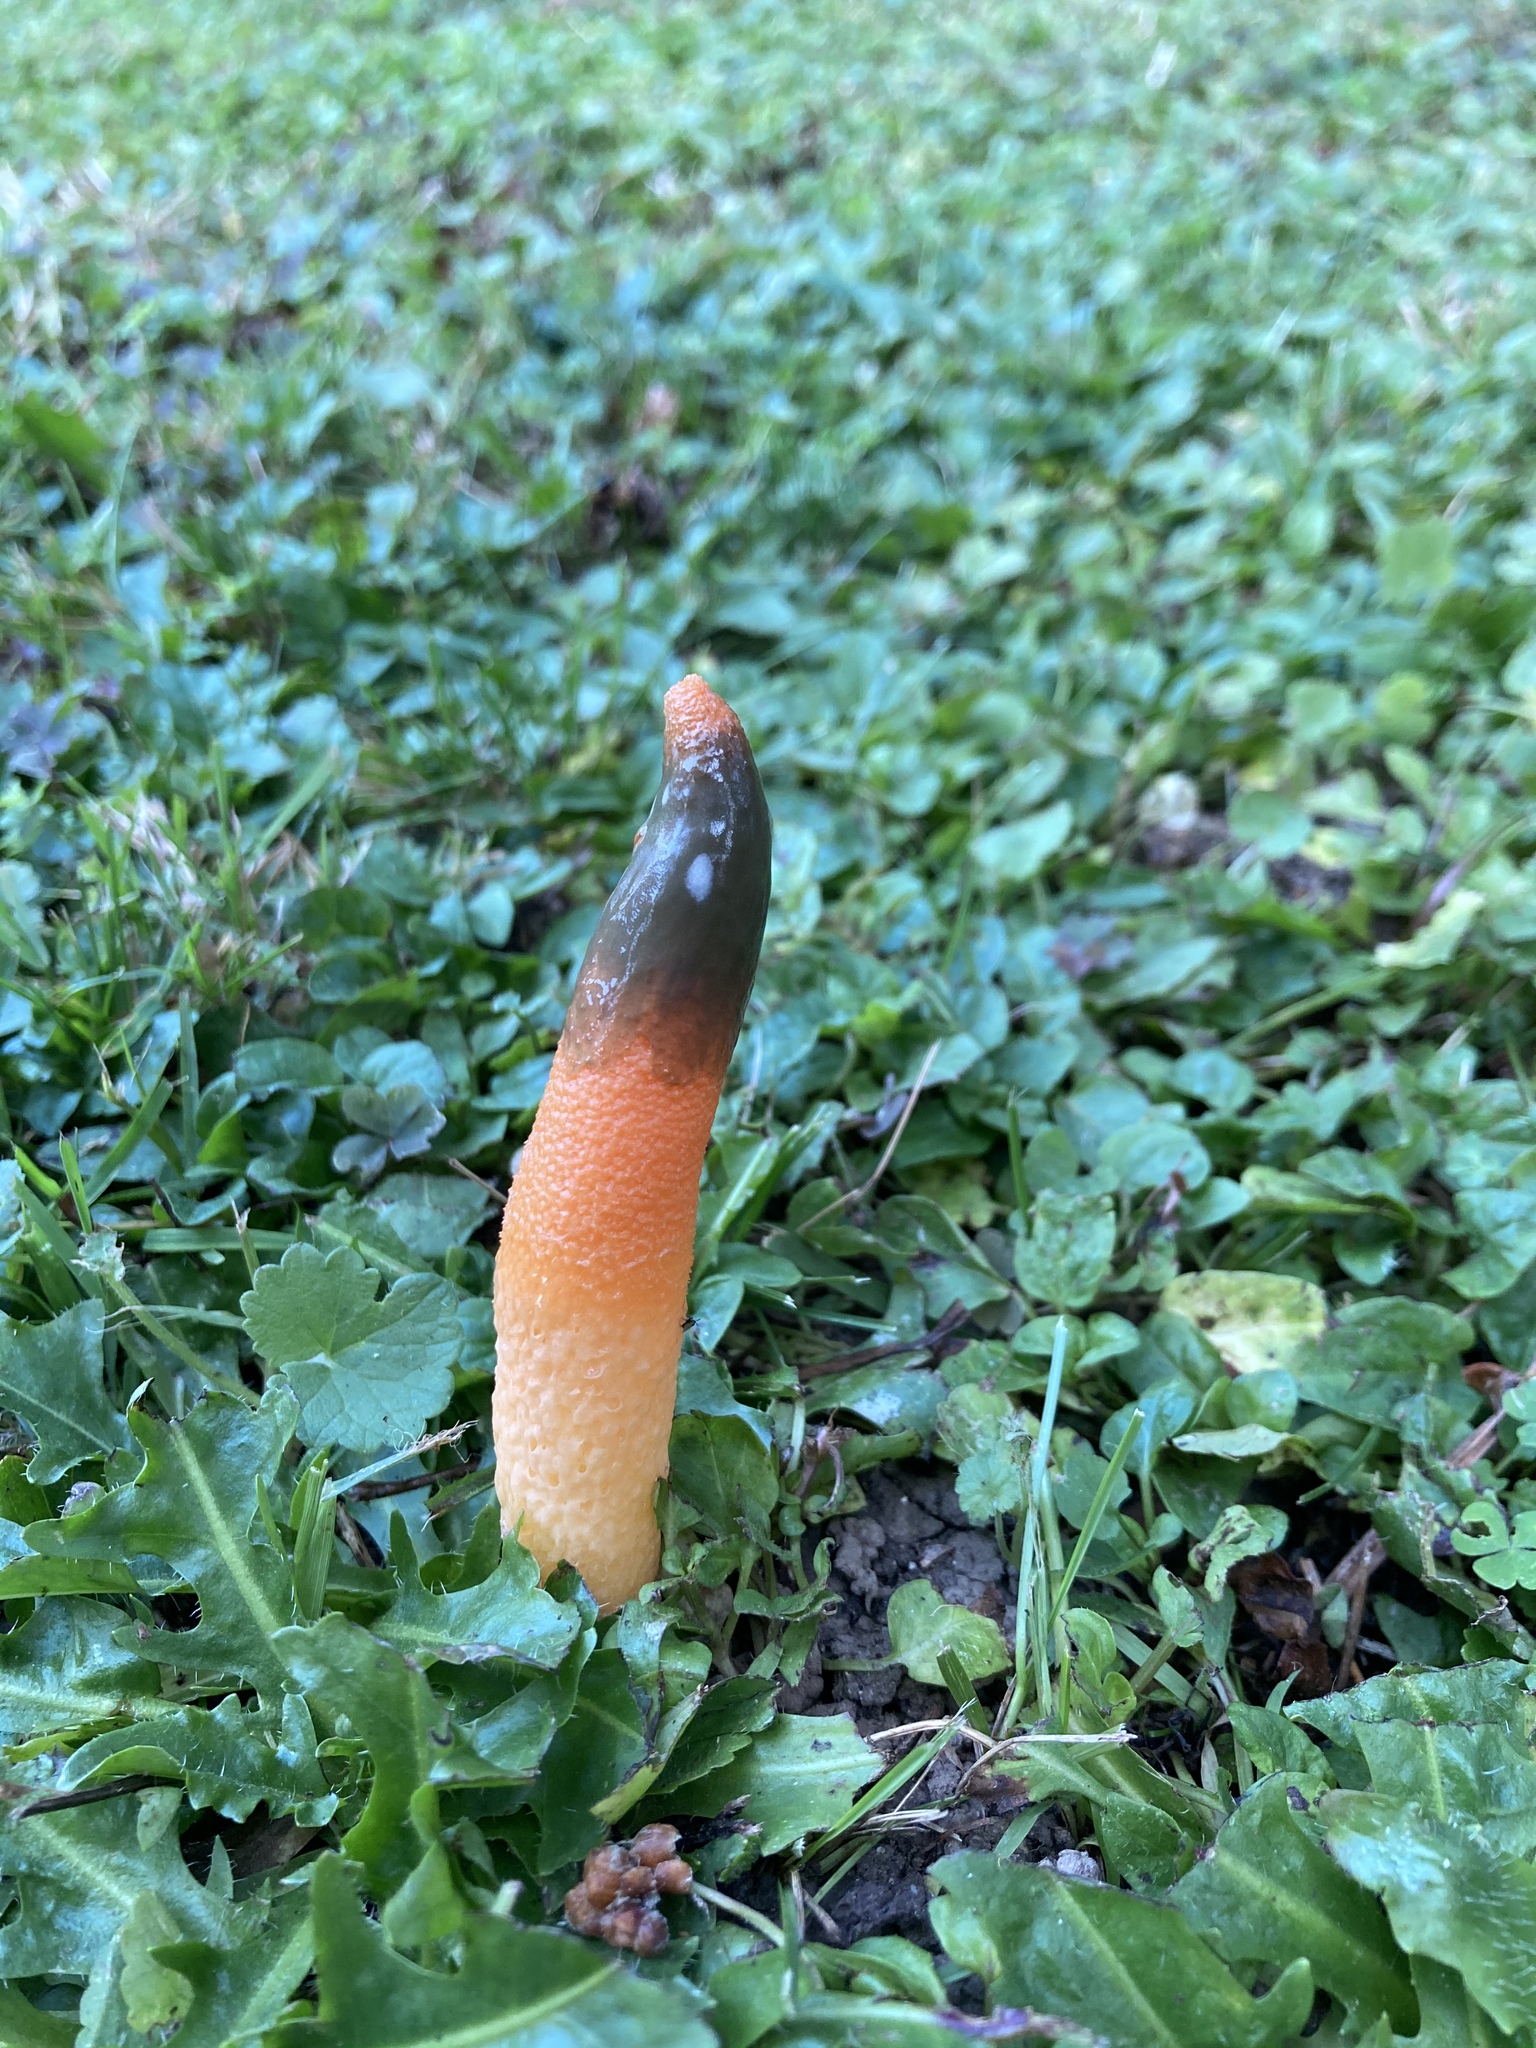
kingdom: Fungi
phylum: Basidiomycota
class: Agaricomycetes
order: Phallales
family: Phallaceae
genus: Mutinus
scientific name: Mutinus elegans
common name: Devil's dipstick
